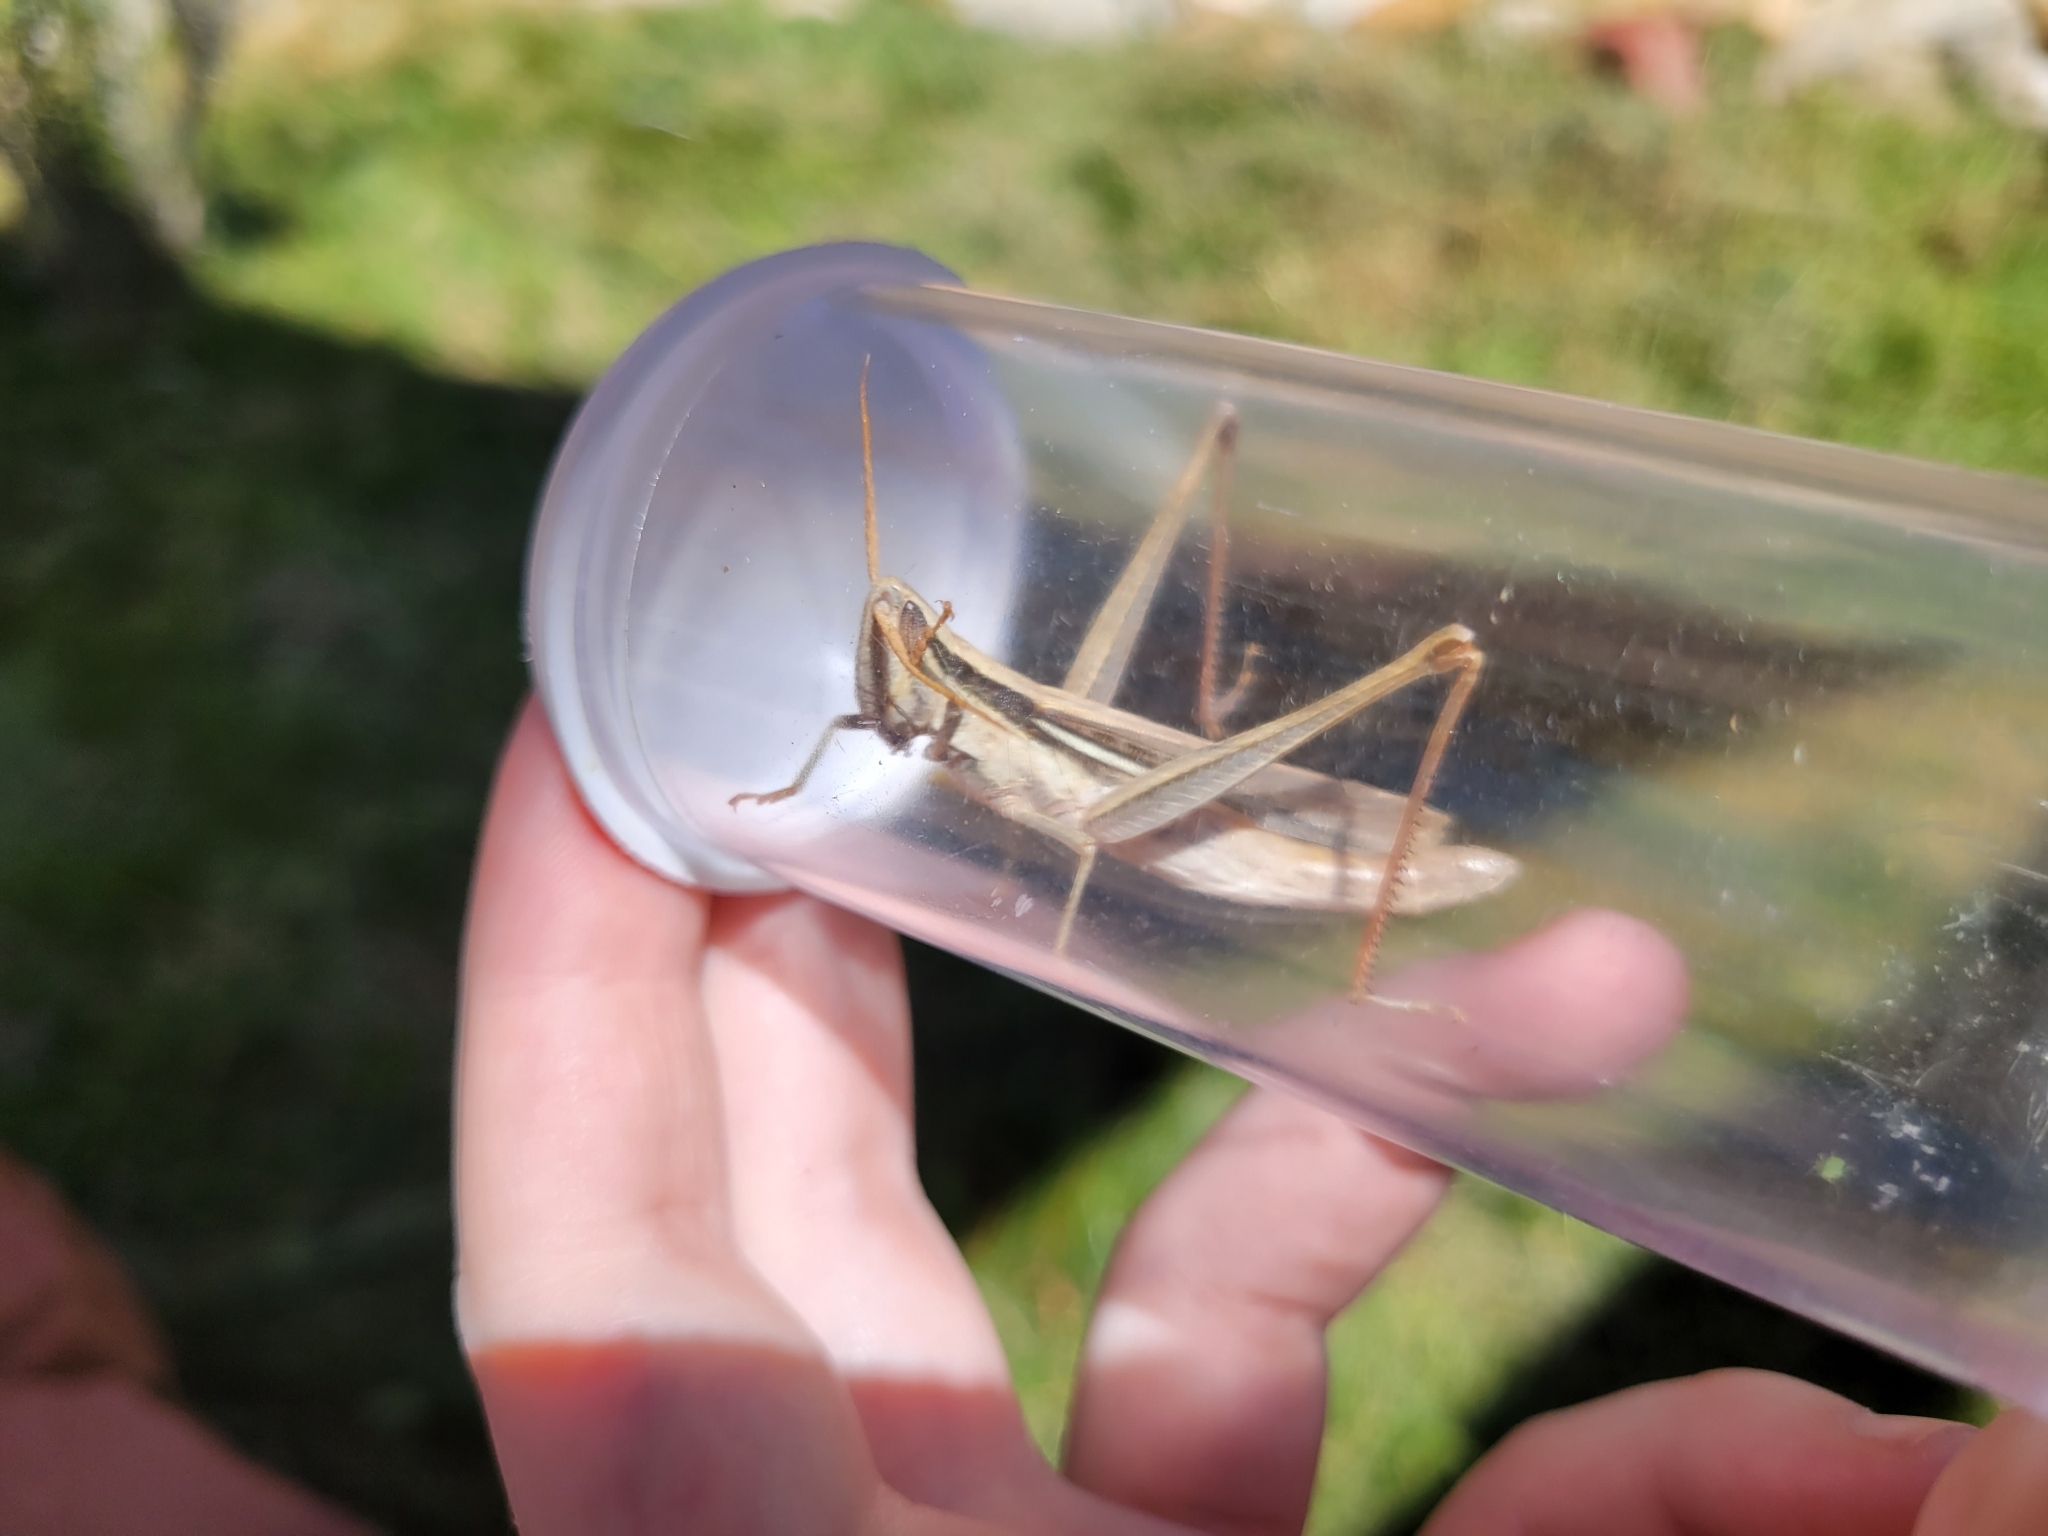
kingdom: Animalia
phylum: Arthropoda
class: Insecta
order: Orthoptera
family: Acrididae
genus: Mermiria
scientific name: Mermiria bivittata
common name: Two-striped mermiria grasshopper
